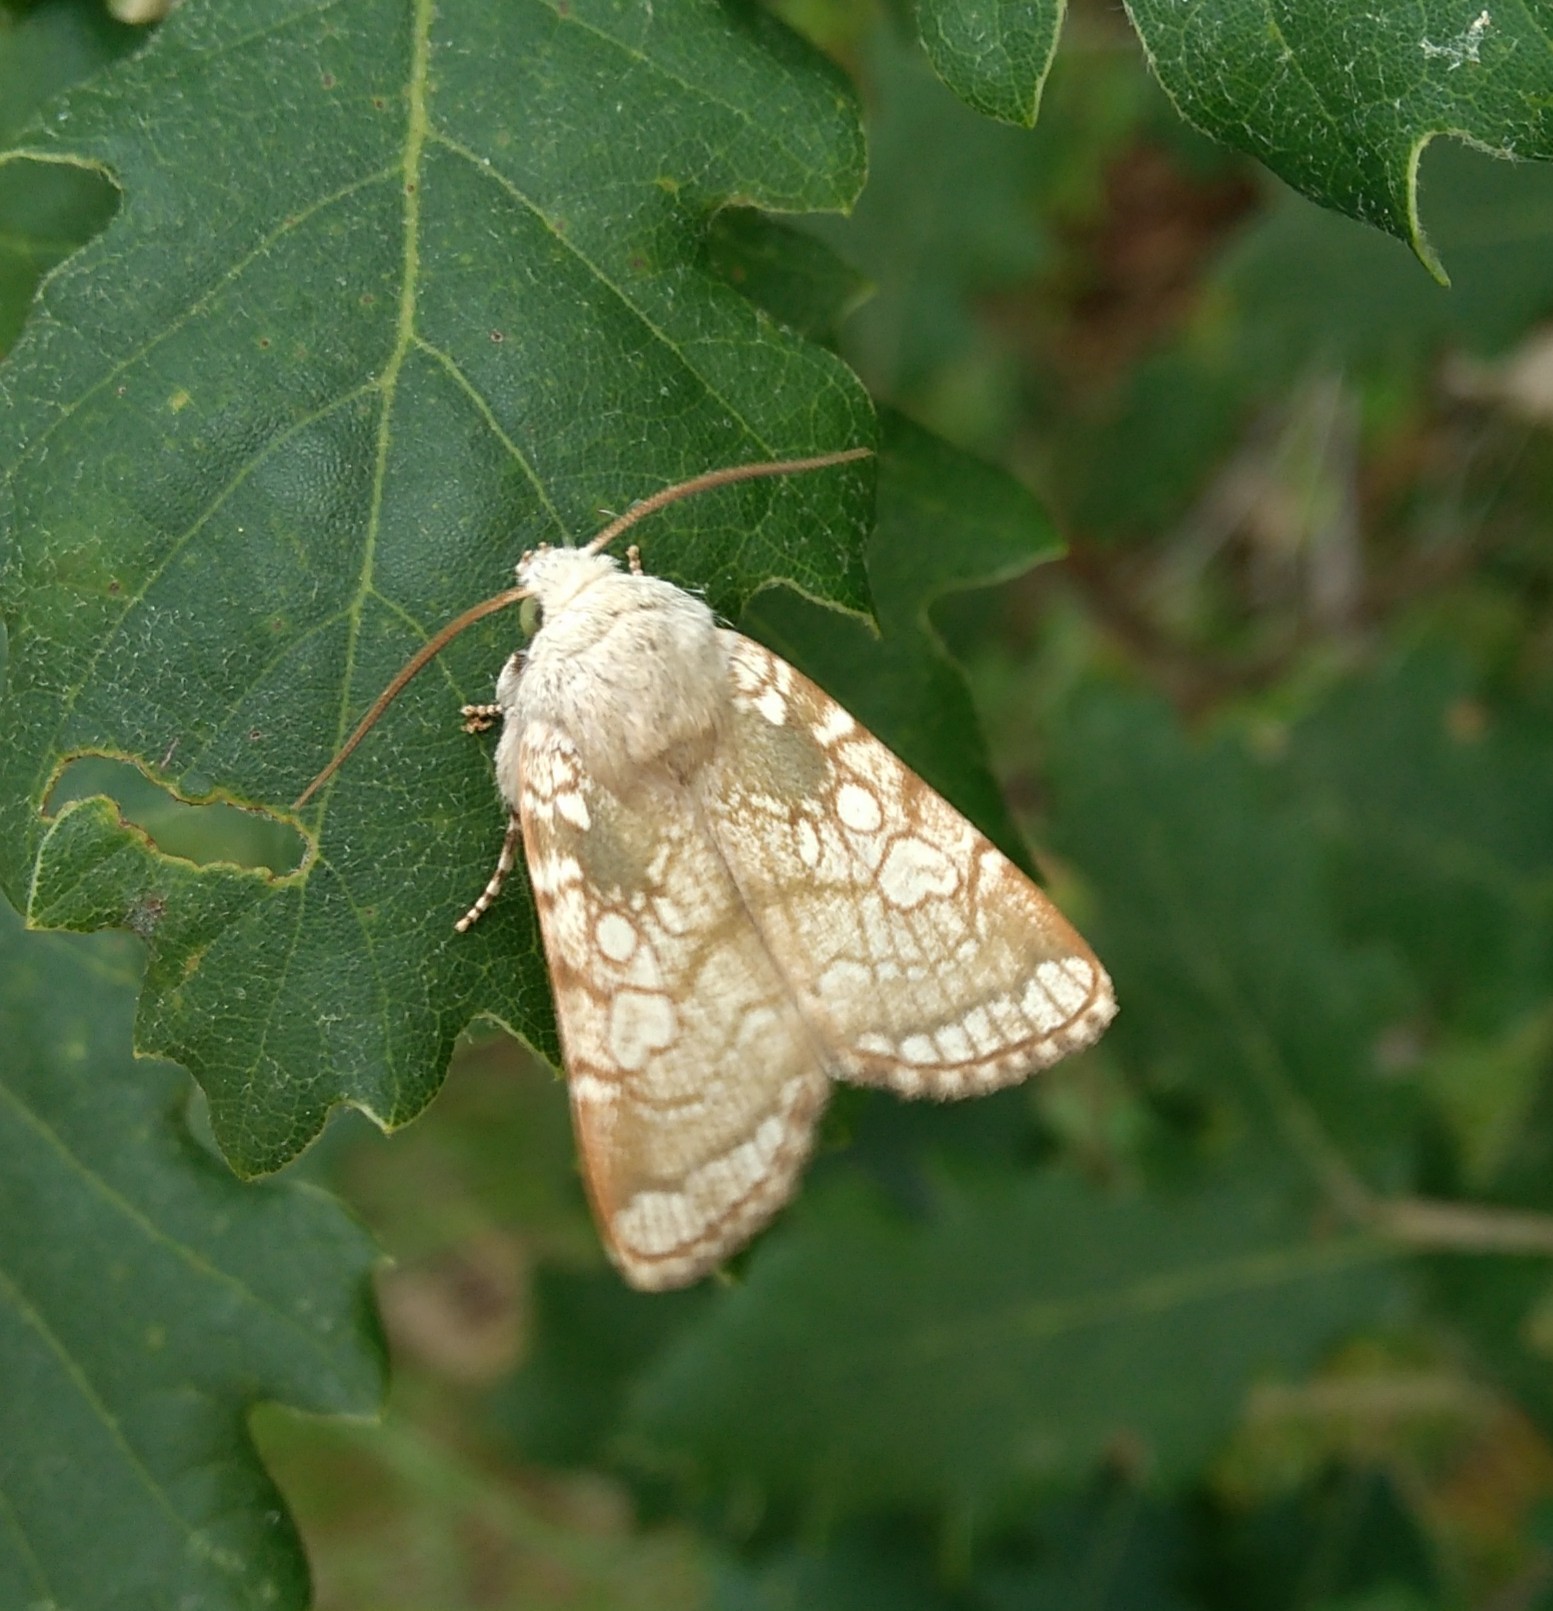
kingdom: Animalia
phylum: Arthropoda
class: Insecta
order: Lepidoptera
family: Noctuidae
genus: Dicycla
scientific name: Dicycla oo
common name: Heart moth
